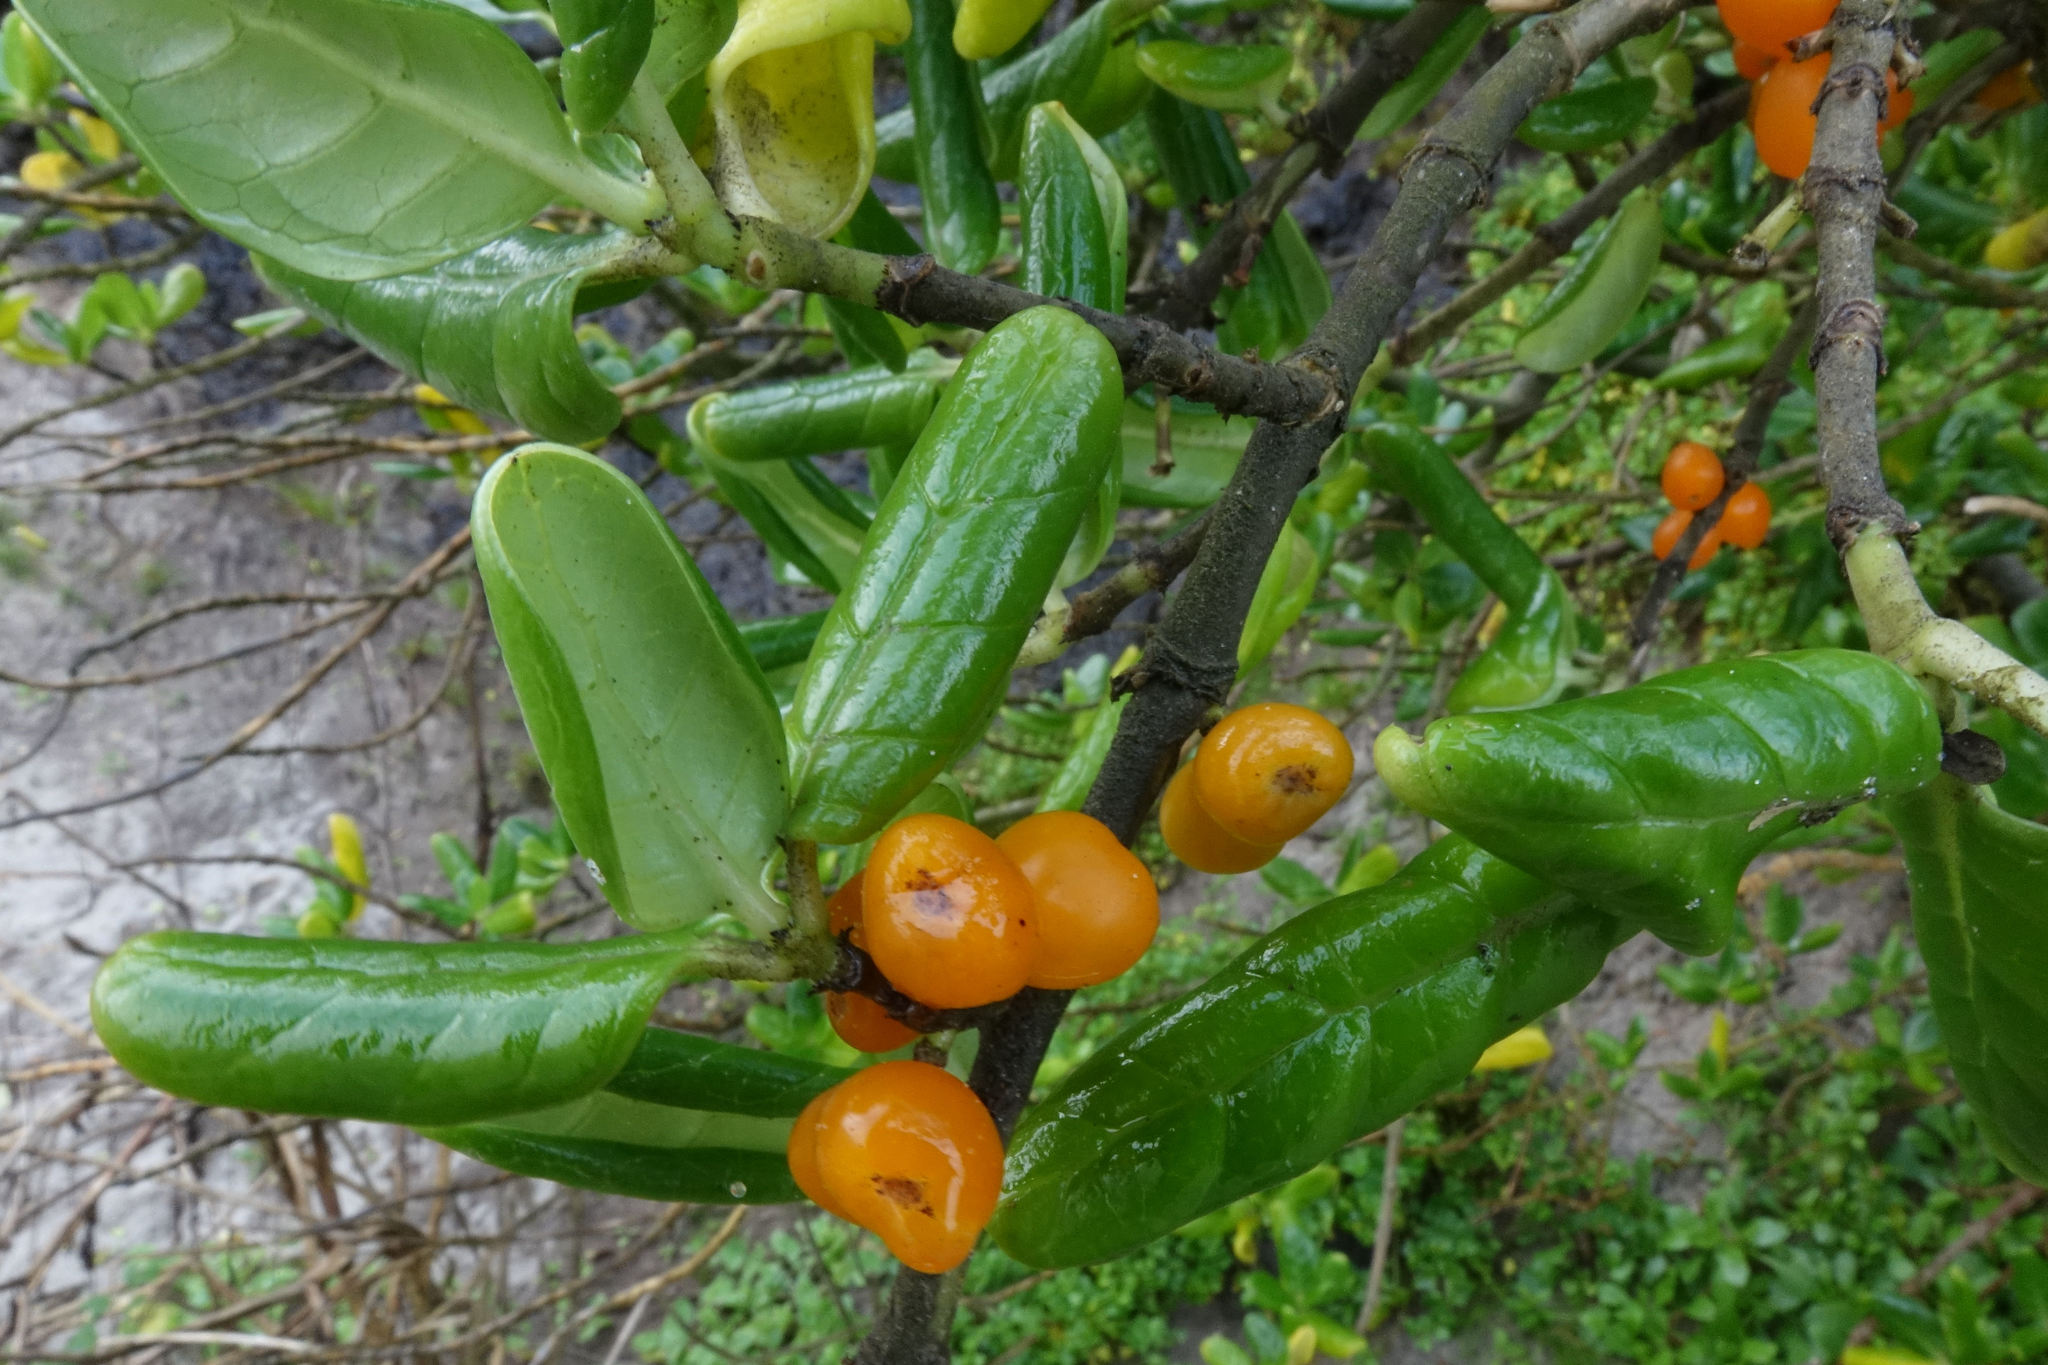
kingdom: Plantae
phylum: Tracheophyta
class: Magnoliopsida
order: Gentianales
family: Rubiaceae
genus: Coprosma
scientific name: Coprosma repens
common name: Tree bedstraw
